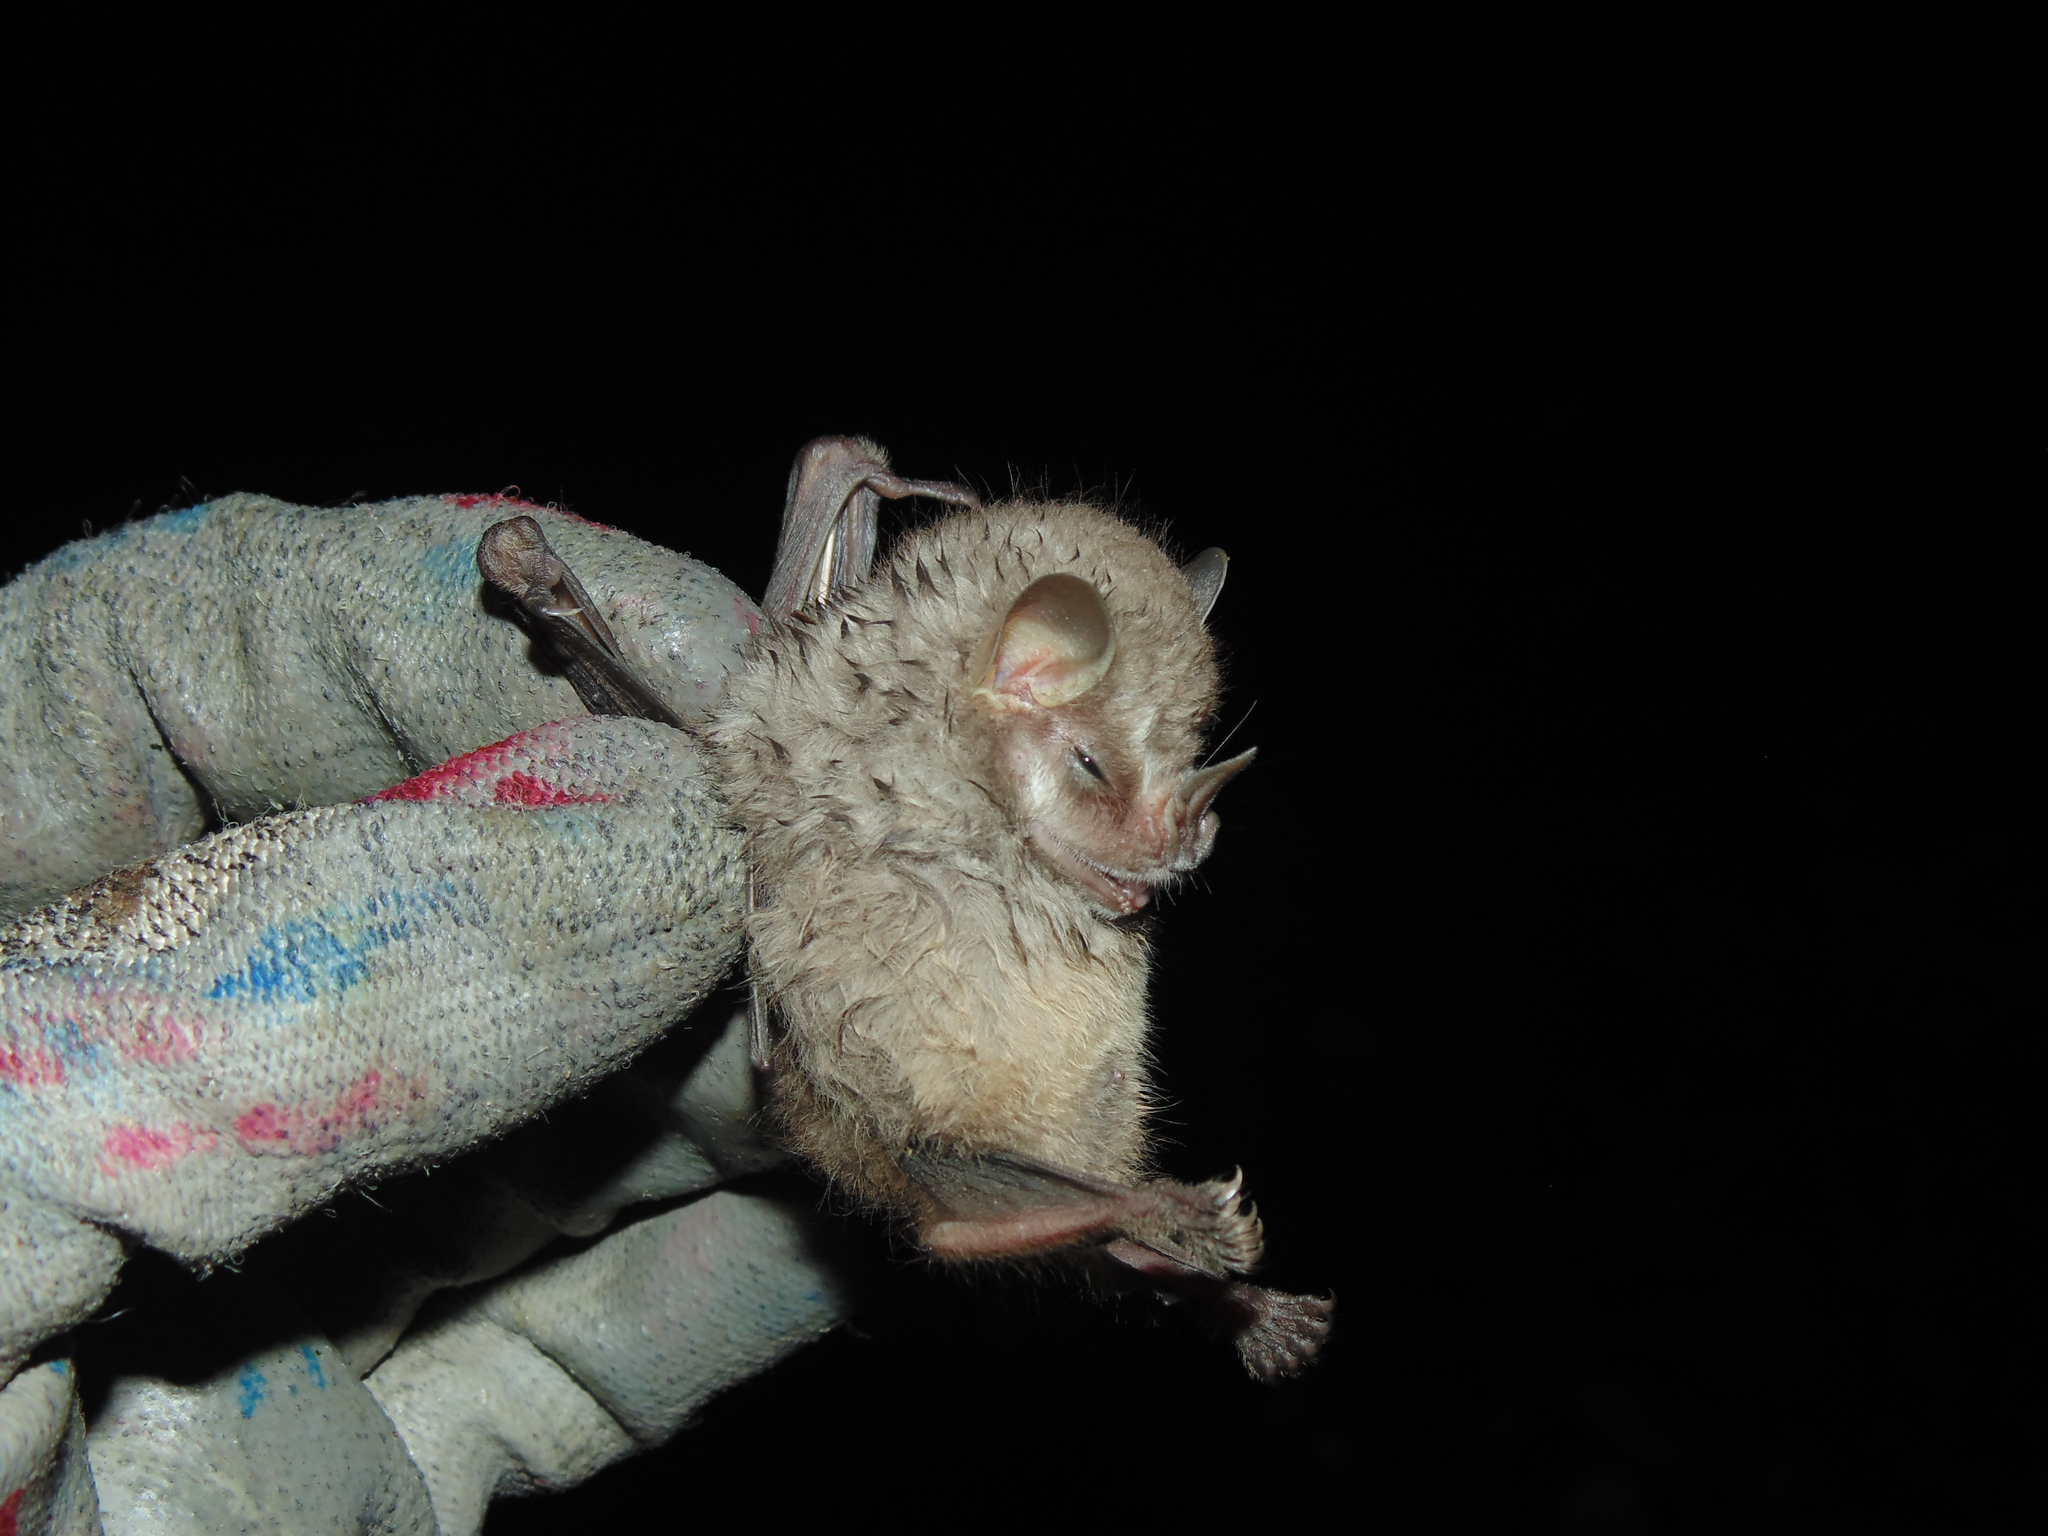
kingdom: Animalia
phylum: Chordata
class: Mammalia
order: Chiroptera
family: Phyllostomidae
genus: Vampyressa
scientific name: Vampyressa pusilla
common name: Southern little yellow-eared bat
